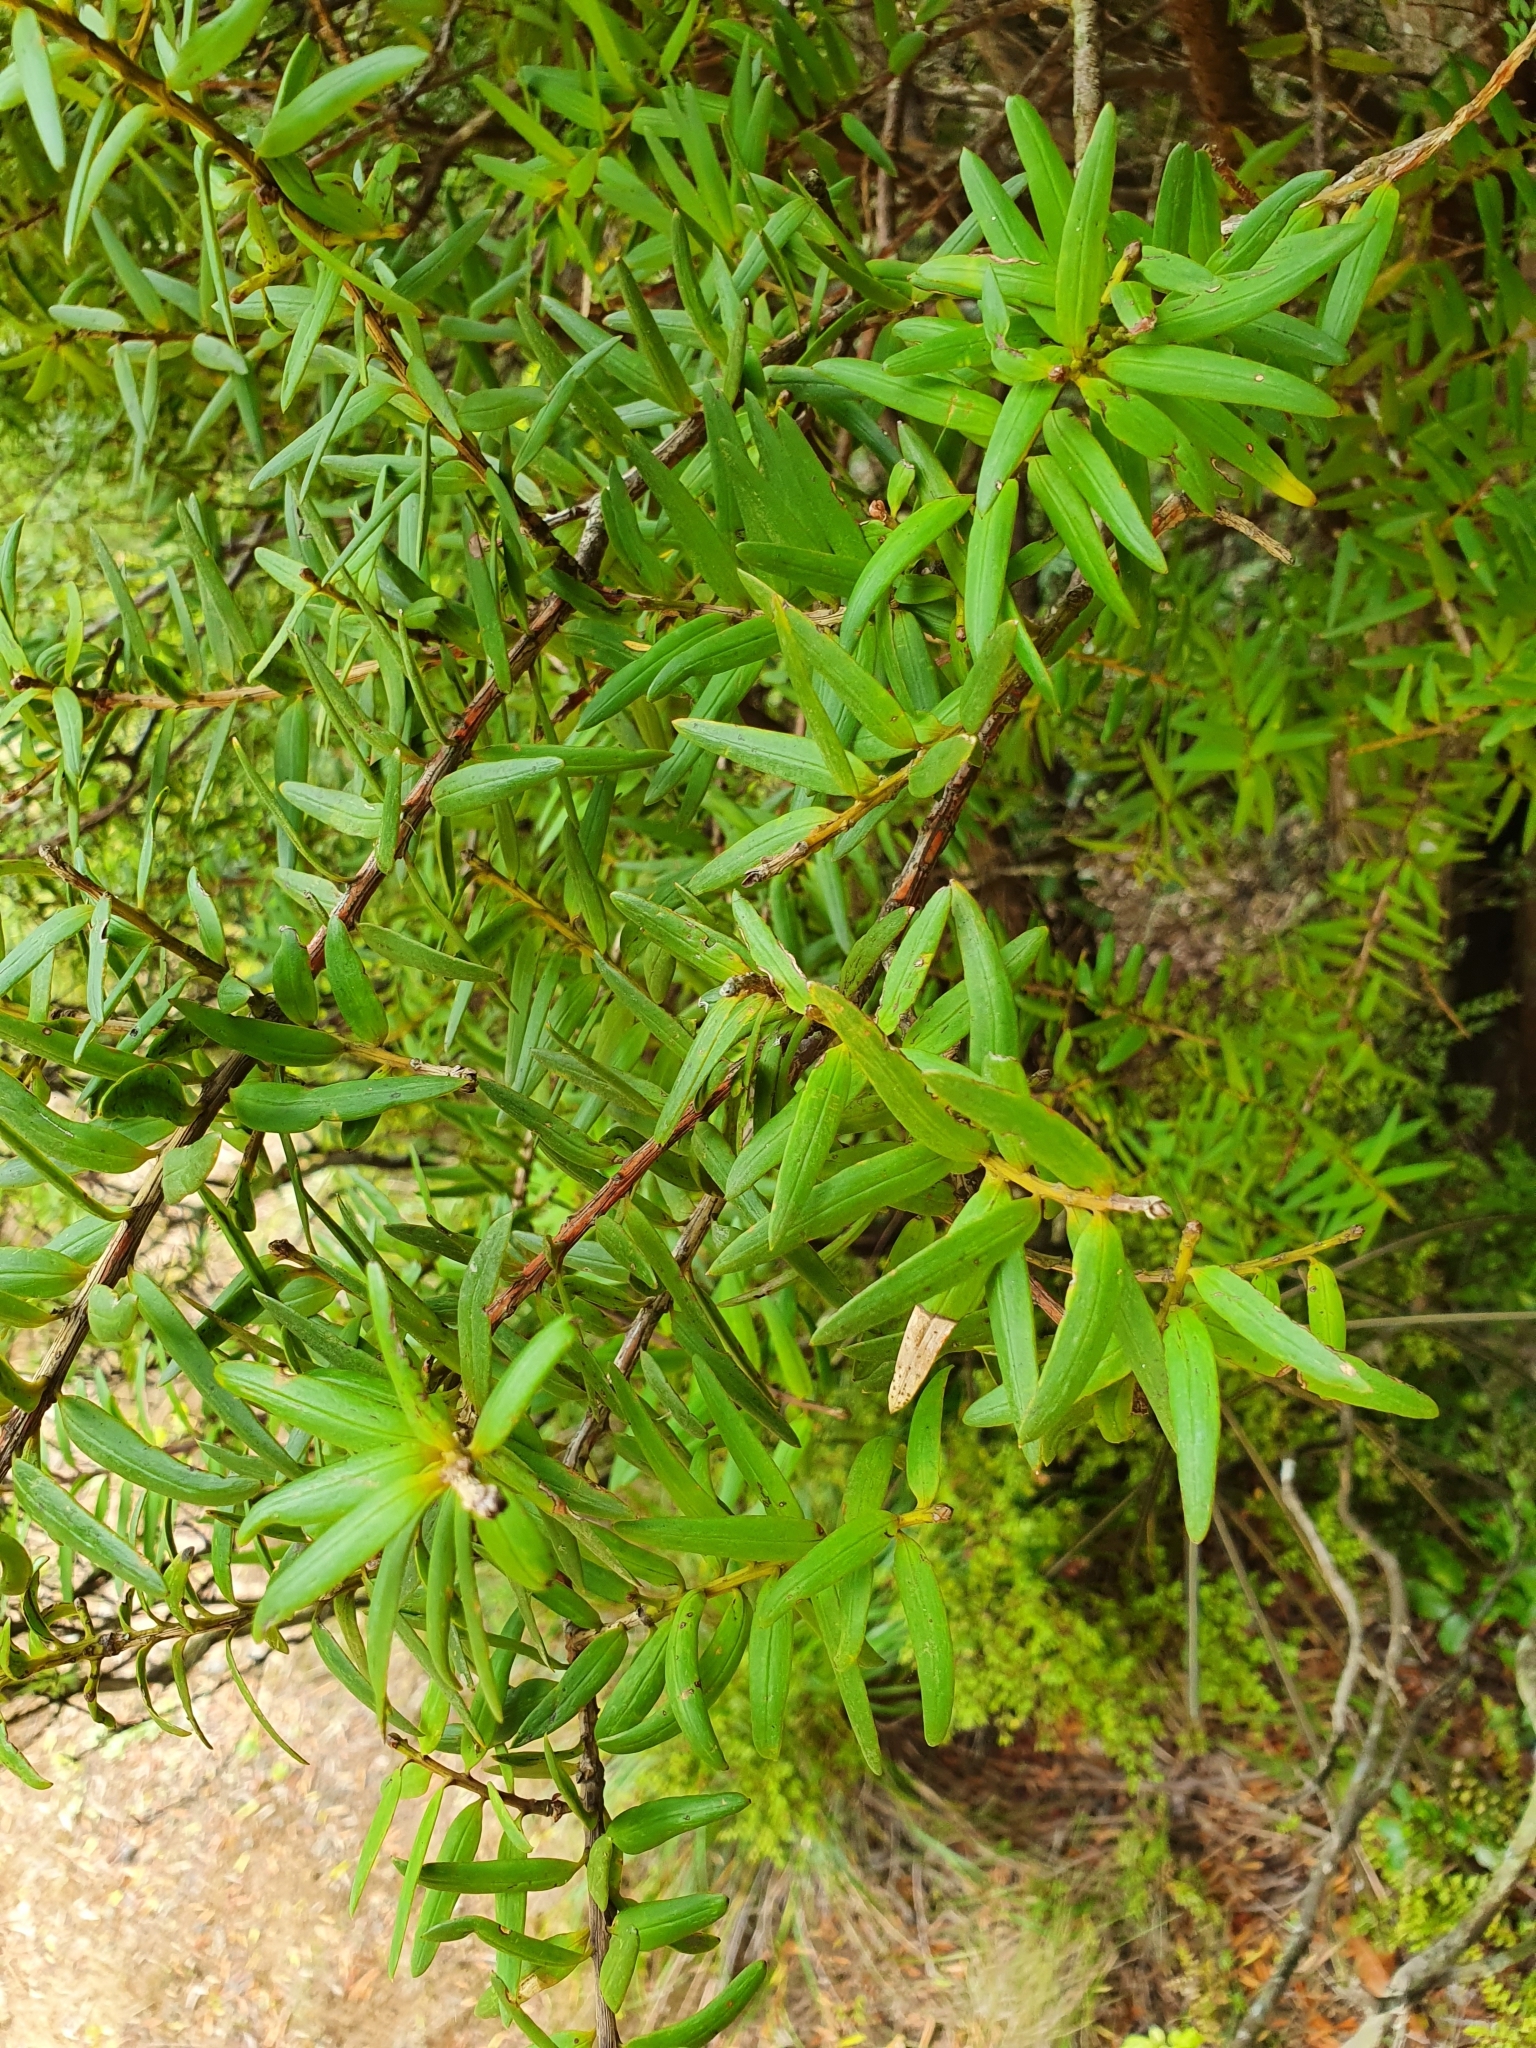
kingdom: Plantae
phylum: Tracheophyta
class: Pinopsida
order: Pinales
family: Podocarpaceae
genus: Podocarpus
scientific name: Podocarpus laetus
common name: Hall's totara
